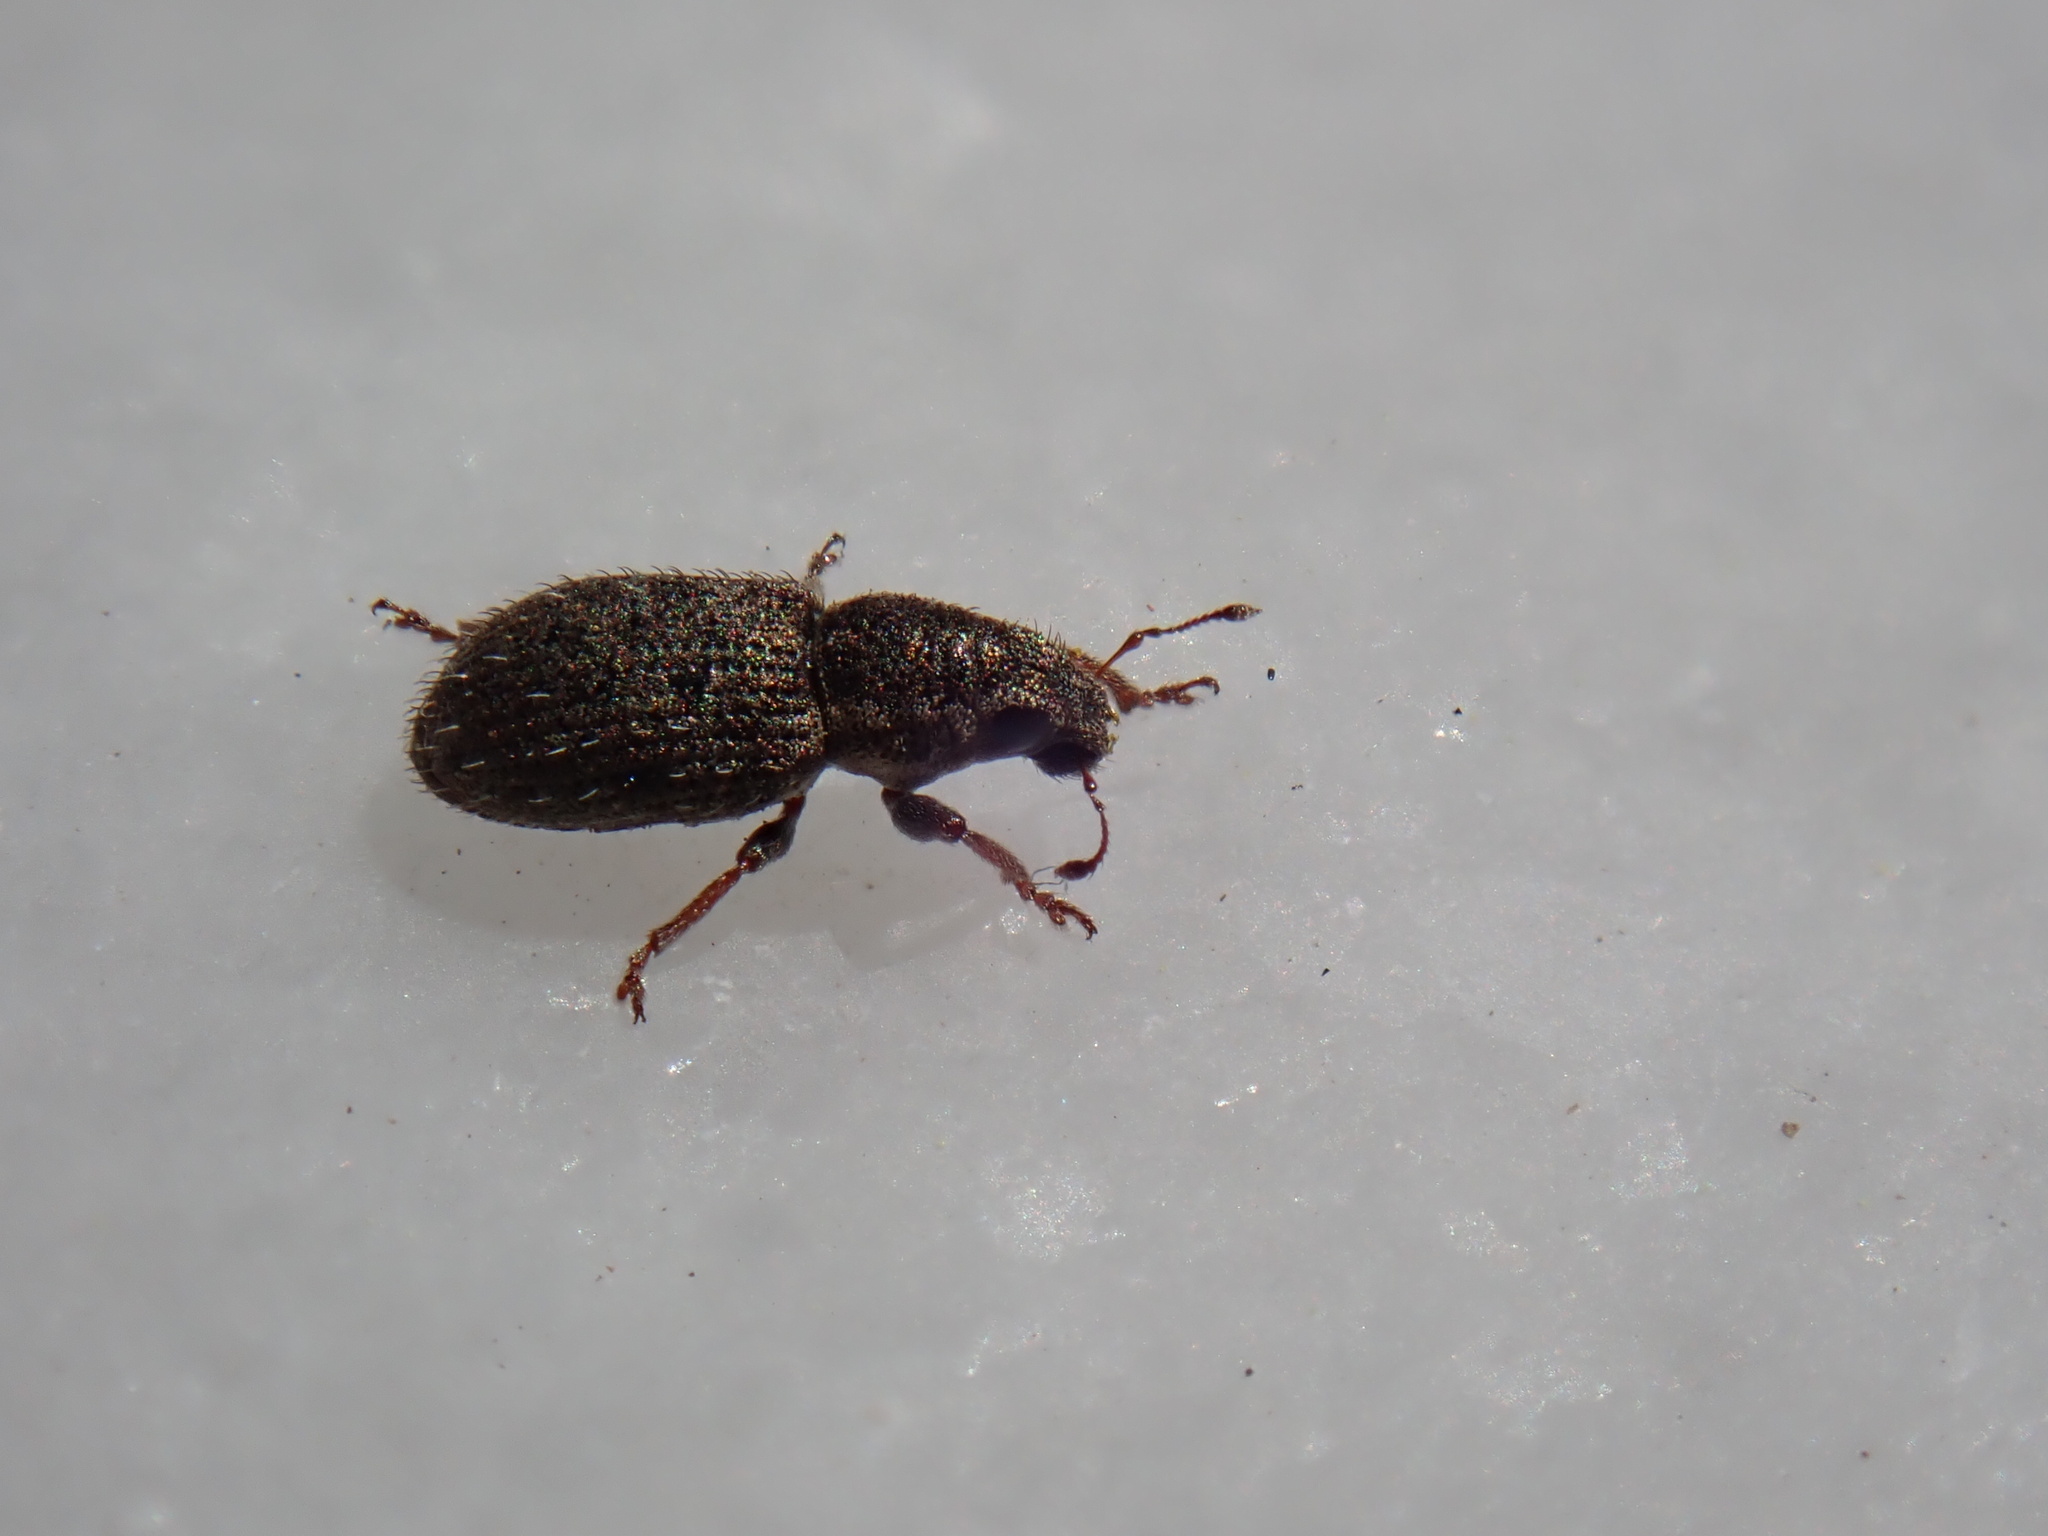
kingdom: Animalia
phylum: Arthropoda
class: Insecta
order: Coleoptera
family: Curculionidae
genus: Sitona
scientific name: Sitona hispidulus
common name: Clover weevil
